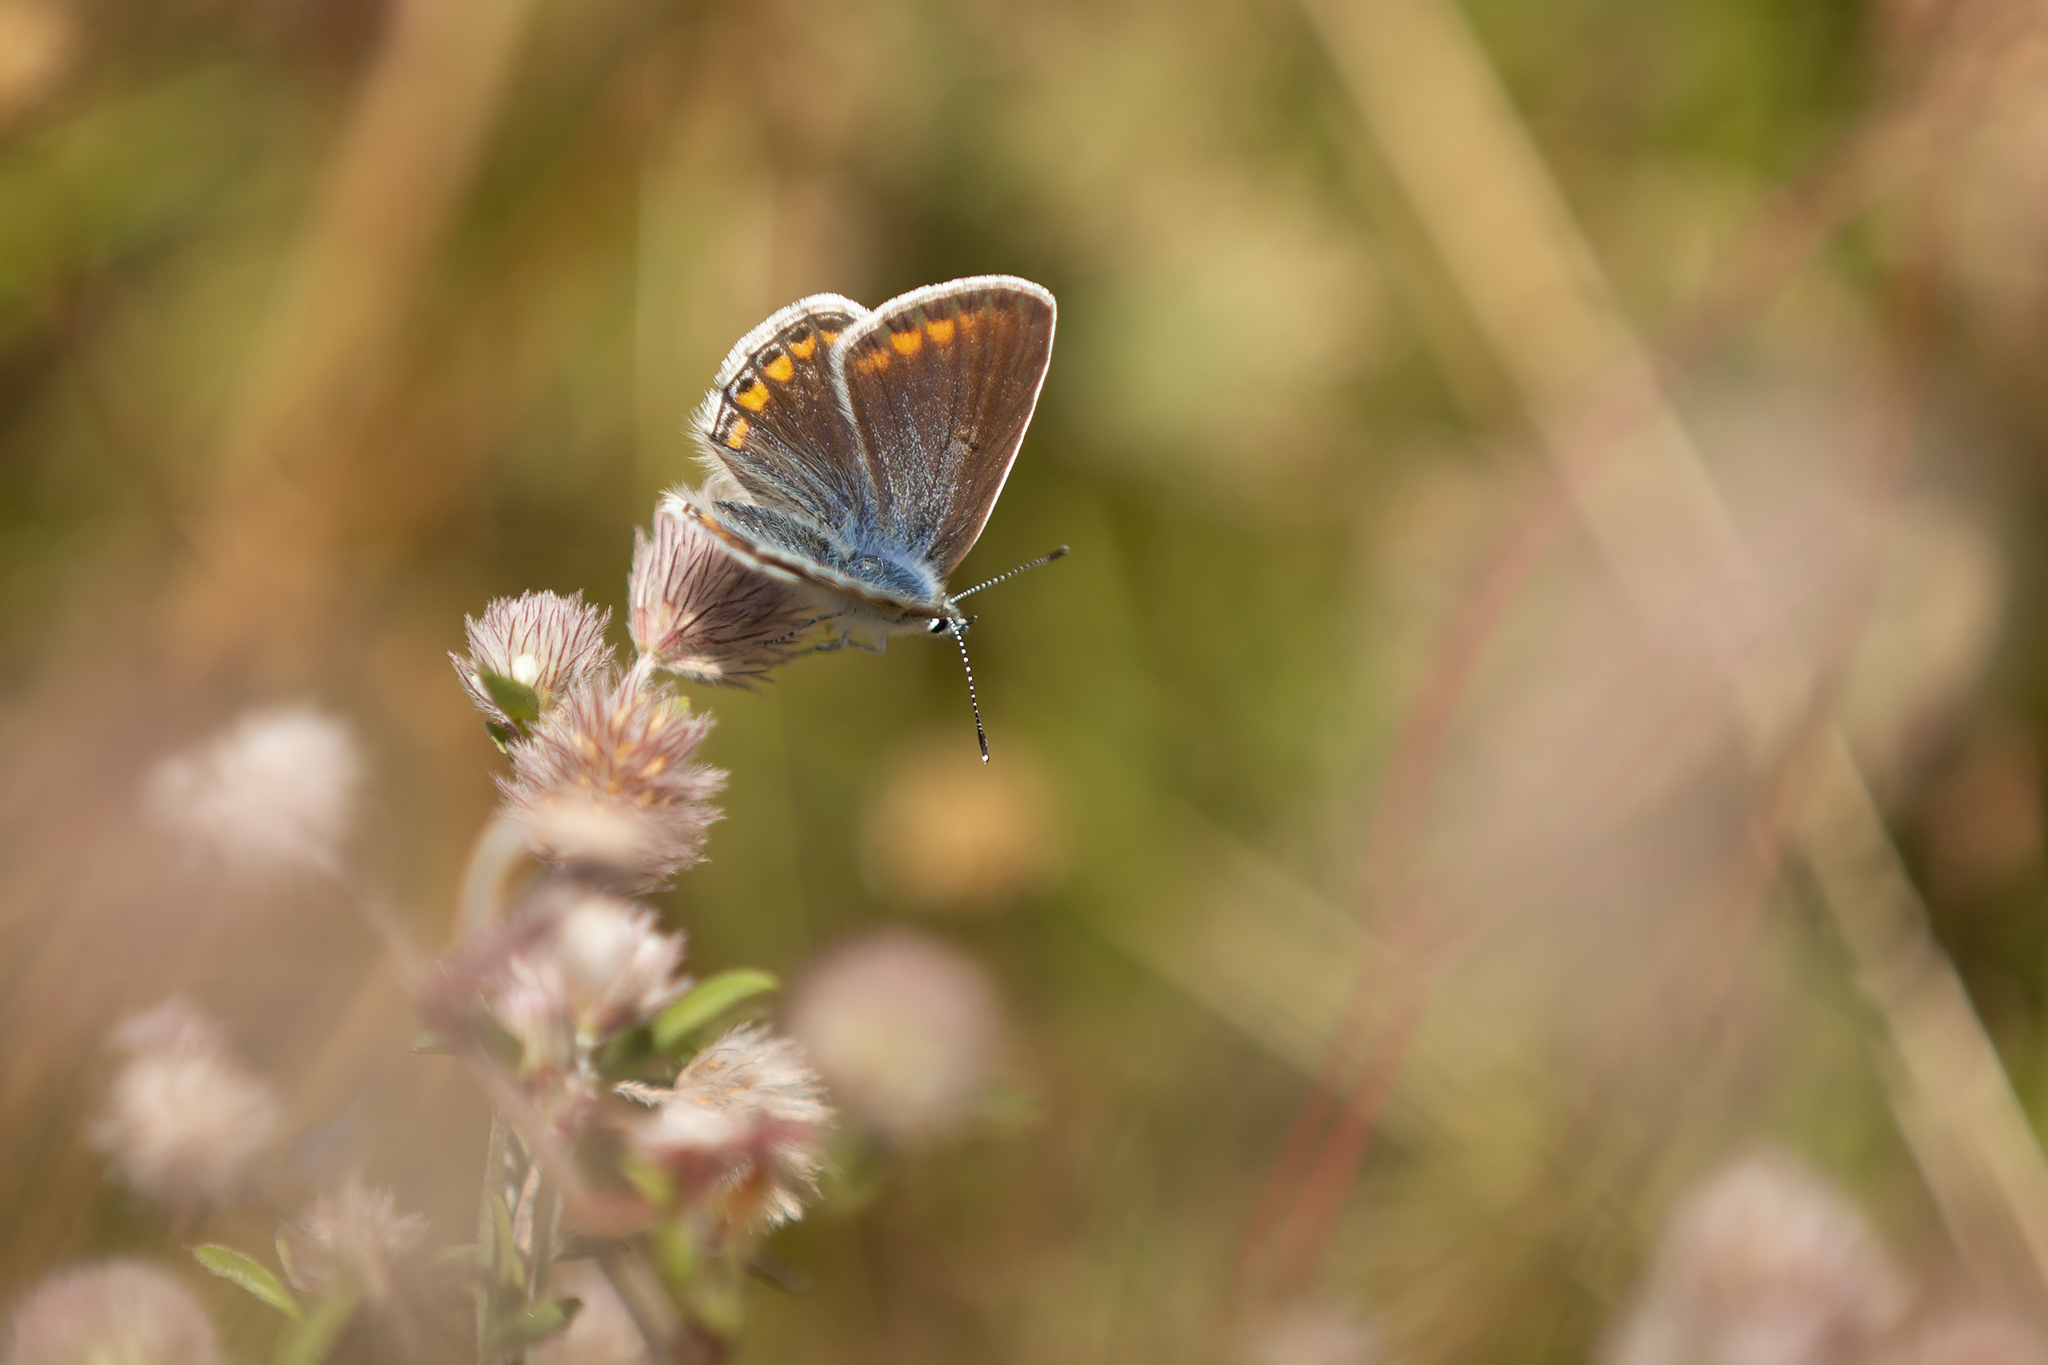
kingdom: Animalia
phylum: Arthropoda
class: Insecta
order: Lepidoptera
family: Lycaenidae
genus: Polyommatus
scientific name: Polyommatus icarus
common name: Common blue
